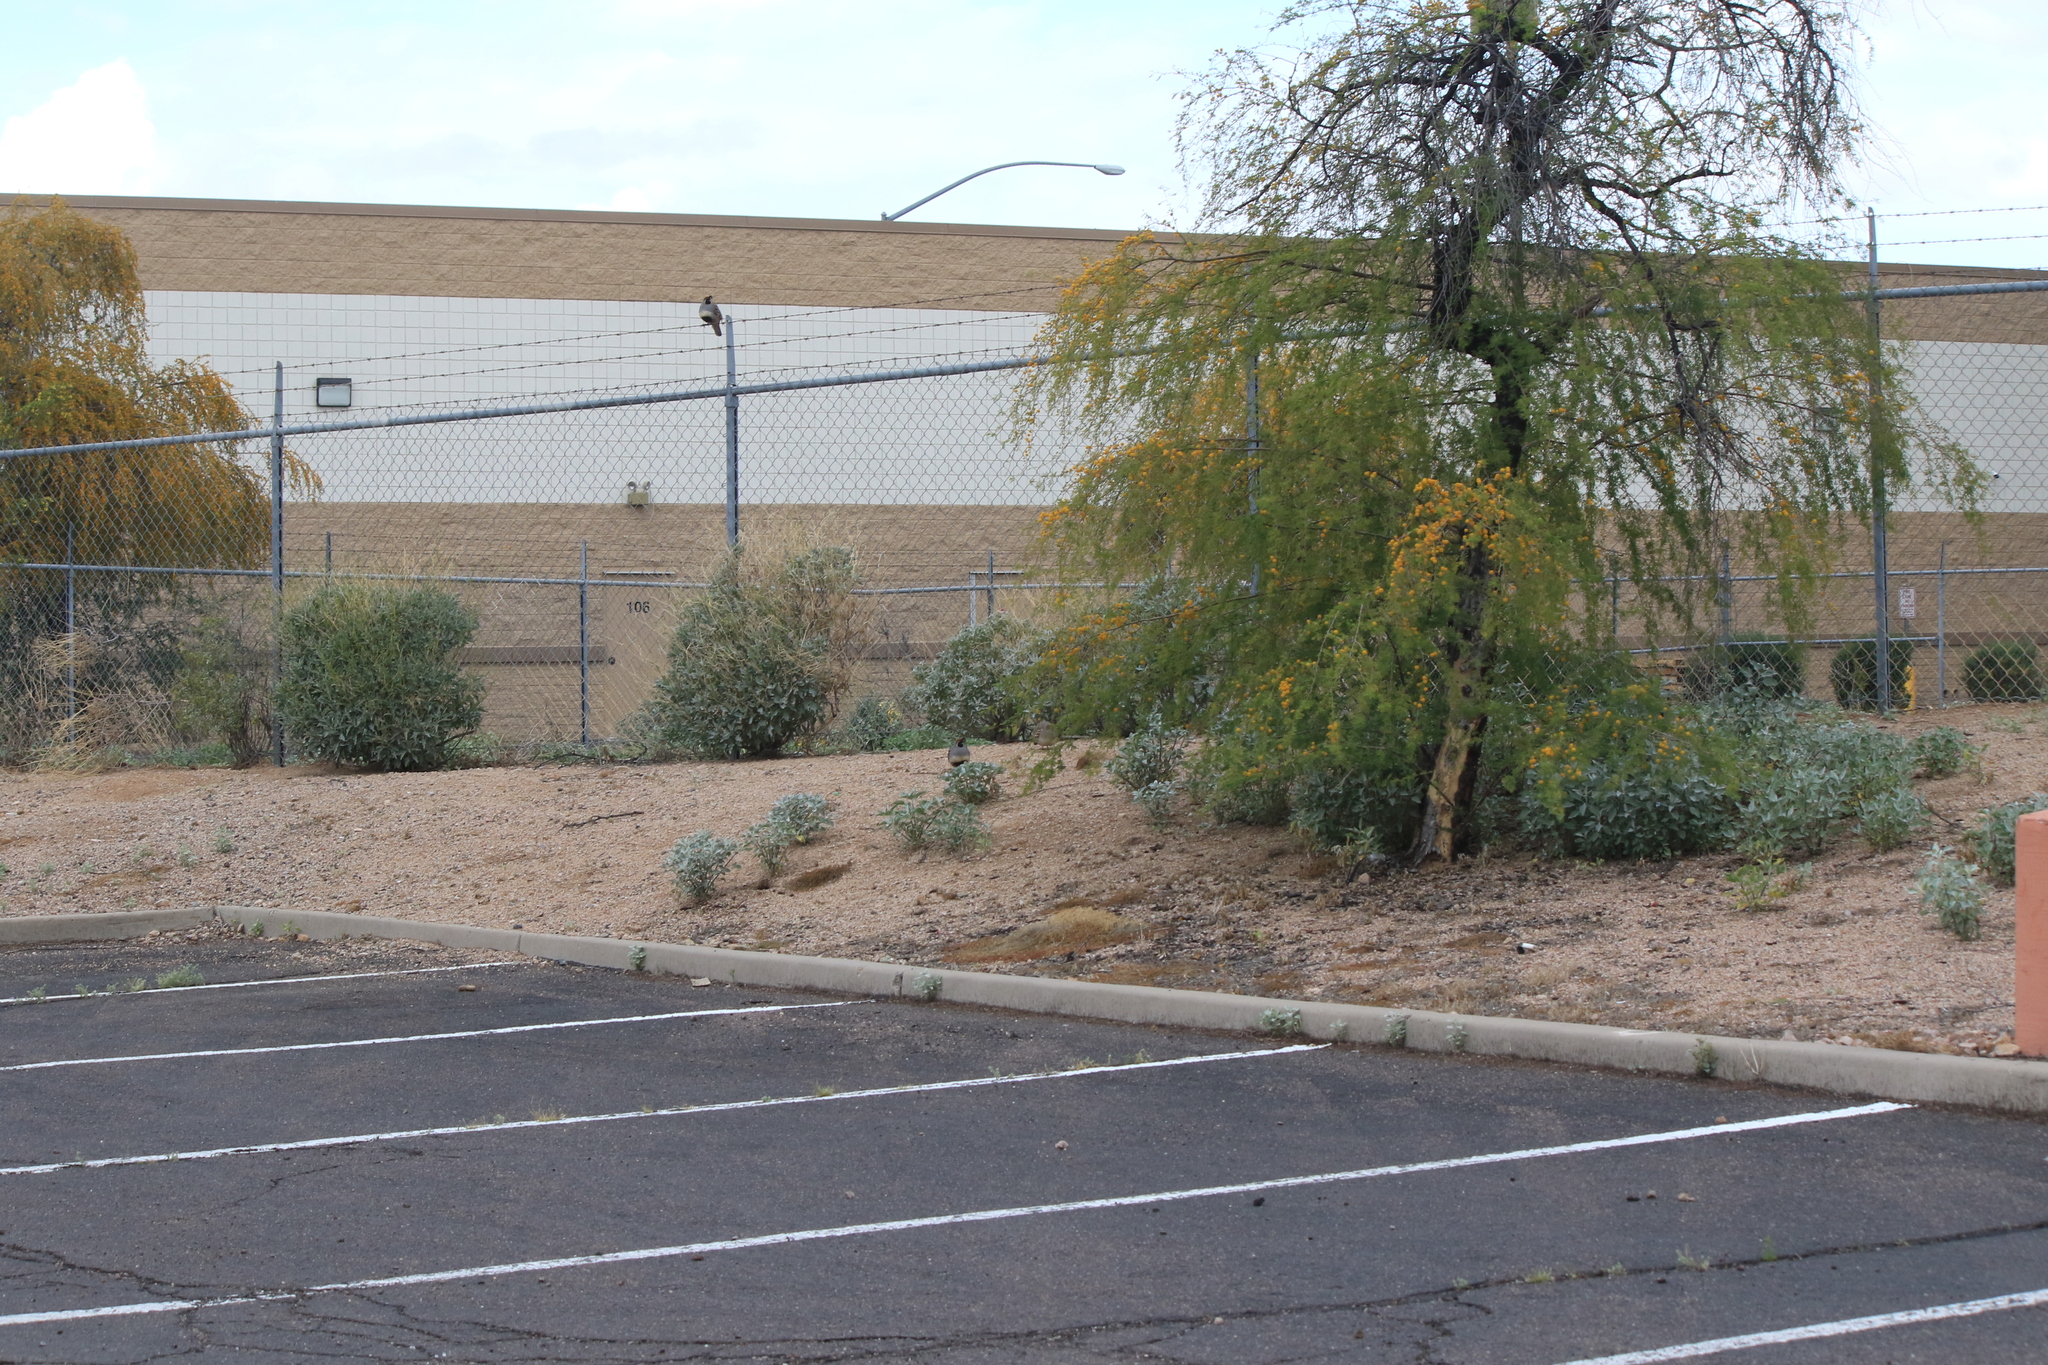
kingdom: Animalia
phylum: Chordata
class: Aves
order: Galliformes
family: Odontophoridae
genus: Callipepla
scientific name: Callipepla gambelii
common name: Gambel's quail
